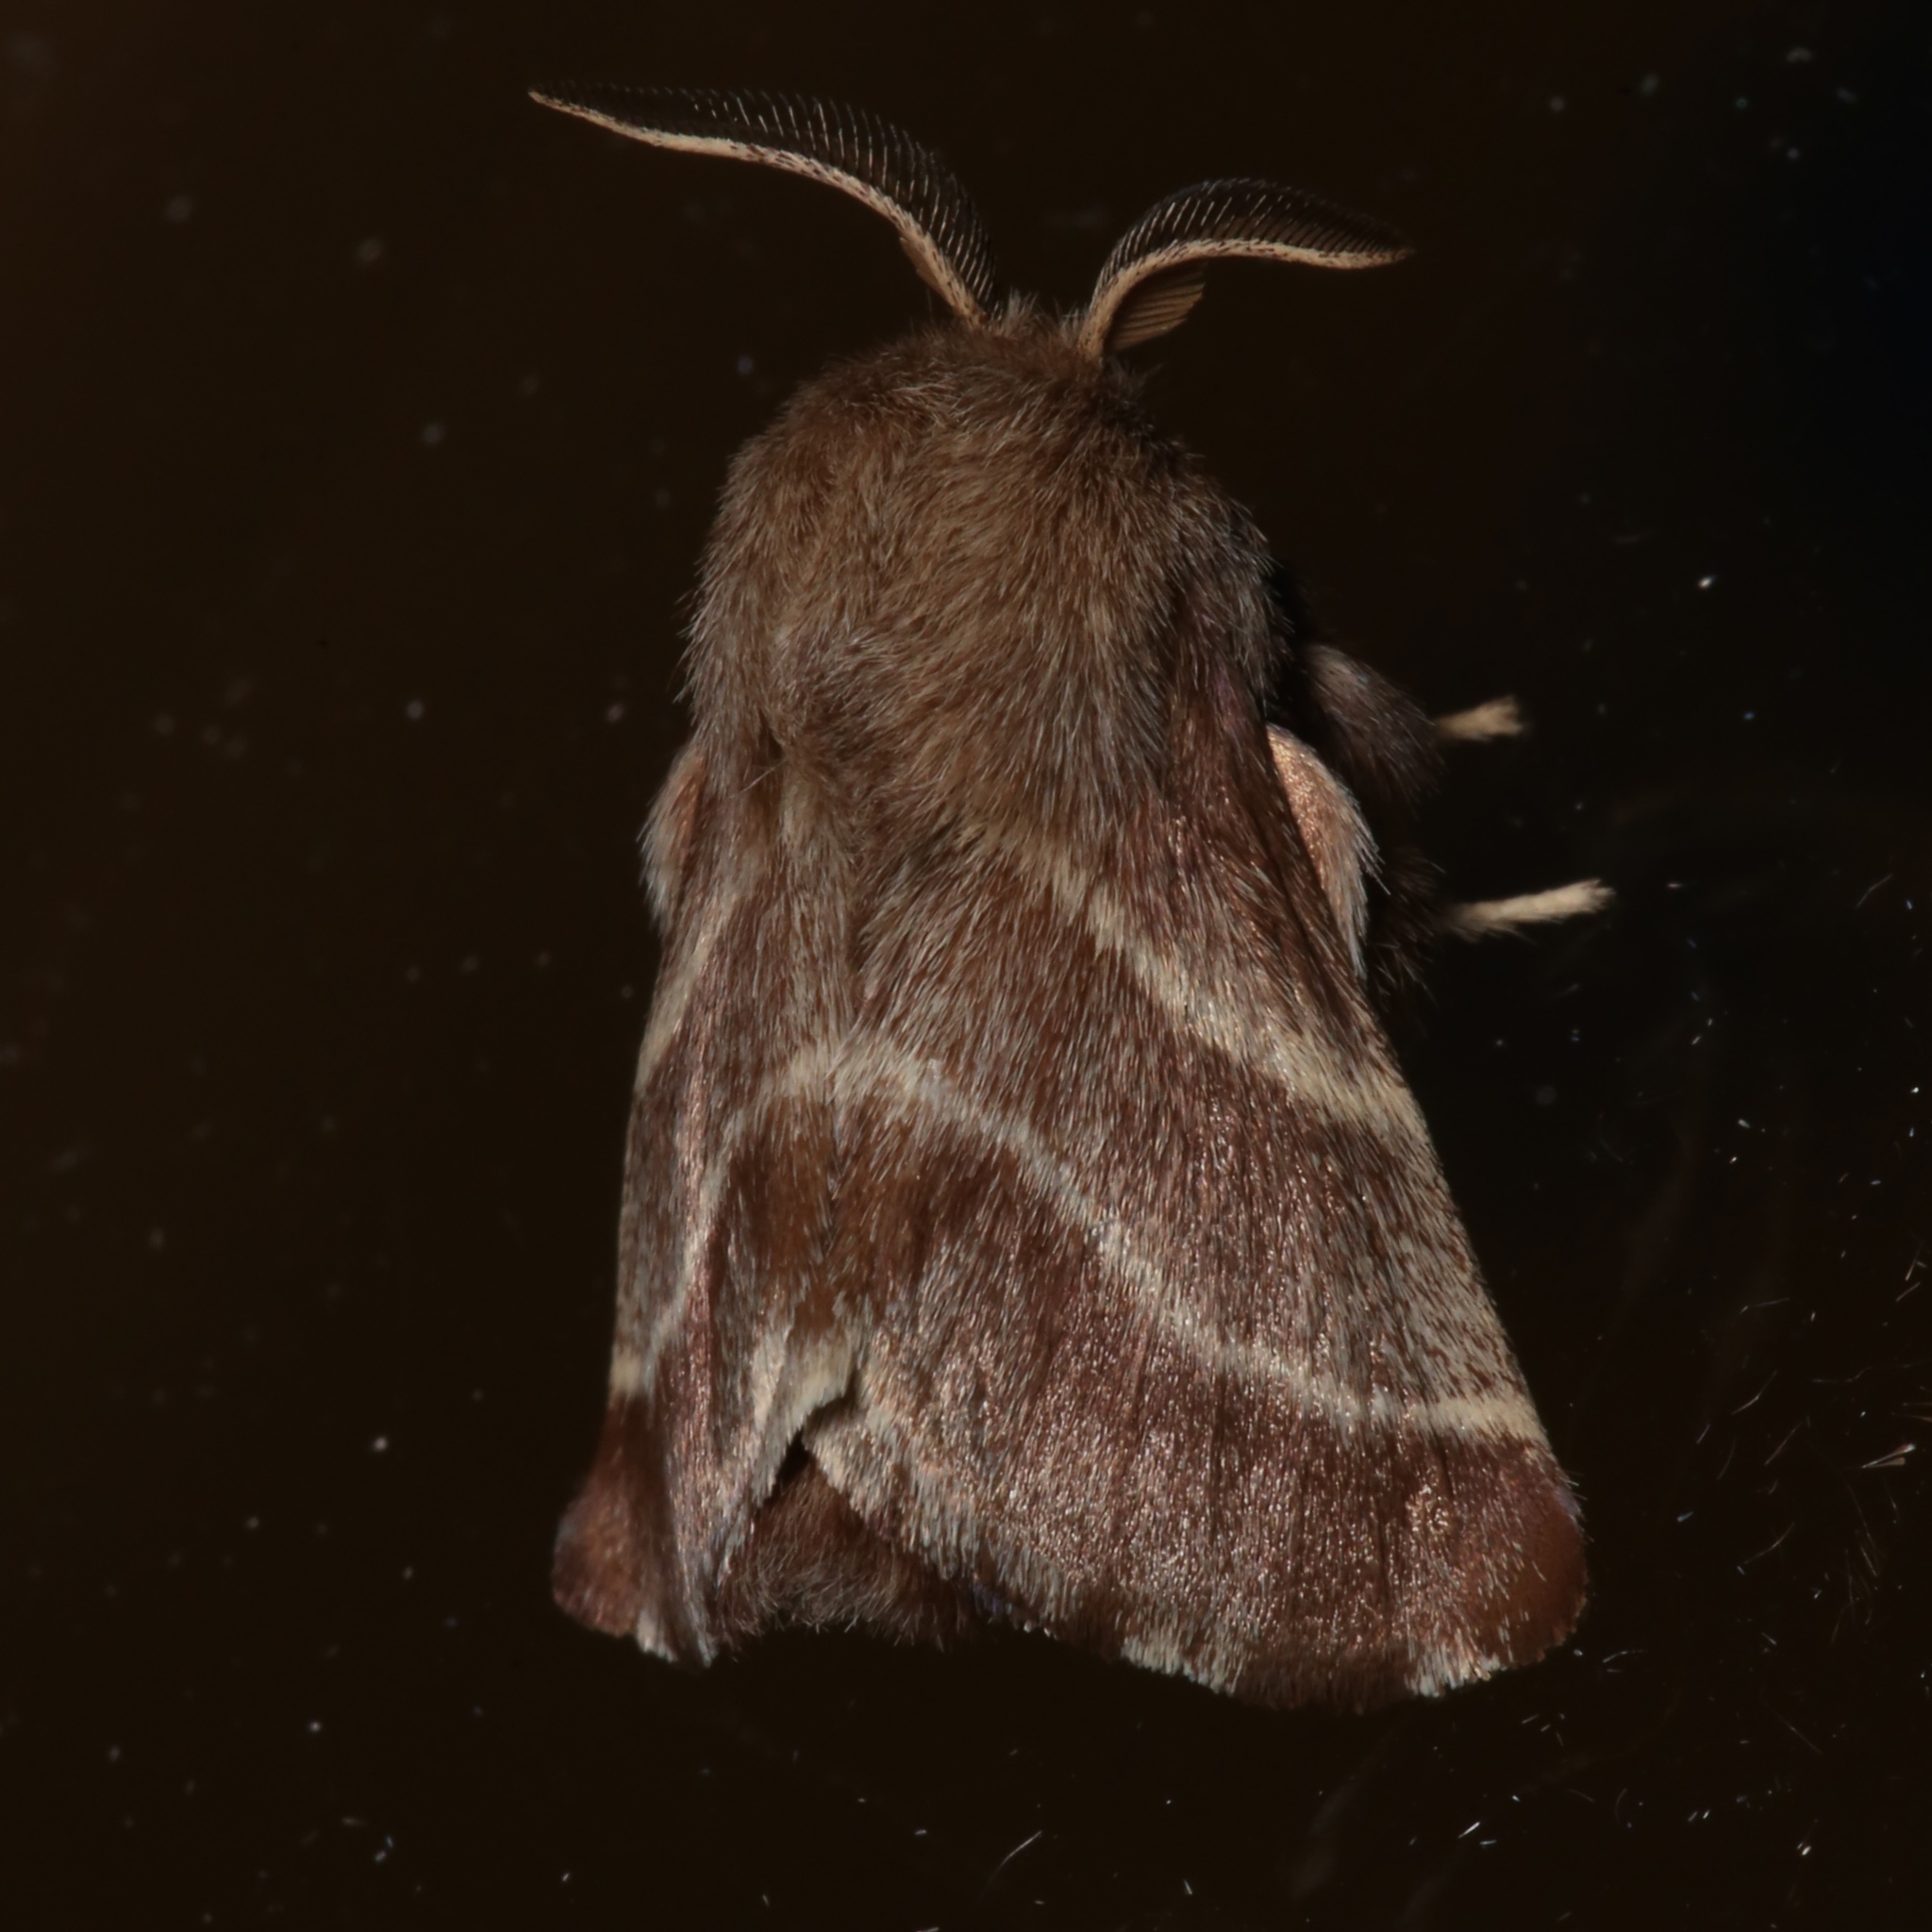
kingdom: Animalia
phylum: Arthropoda
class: Insecta
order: Lepidoptera
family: Lasiocampidae
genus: Malacosoma
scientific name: Malacosoma americana
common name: Eastern tent caterpillar moth
